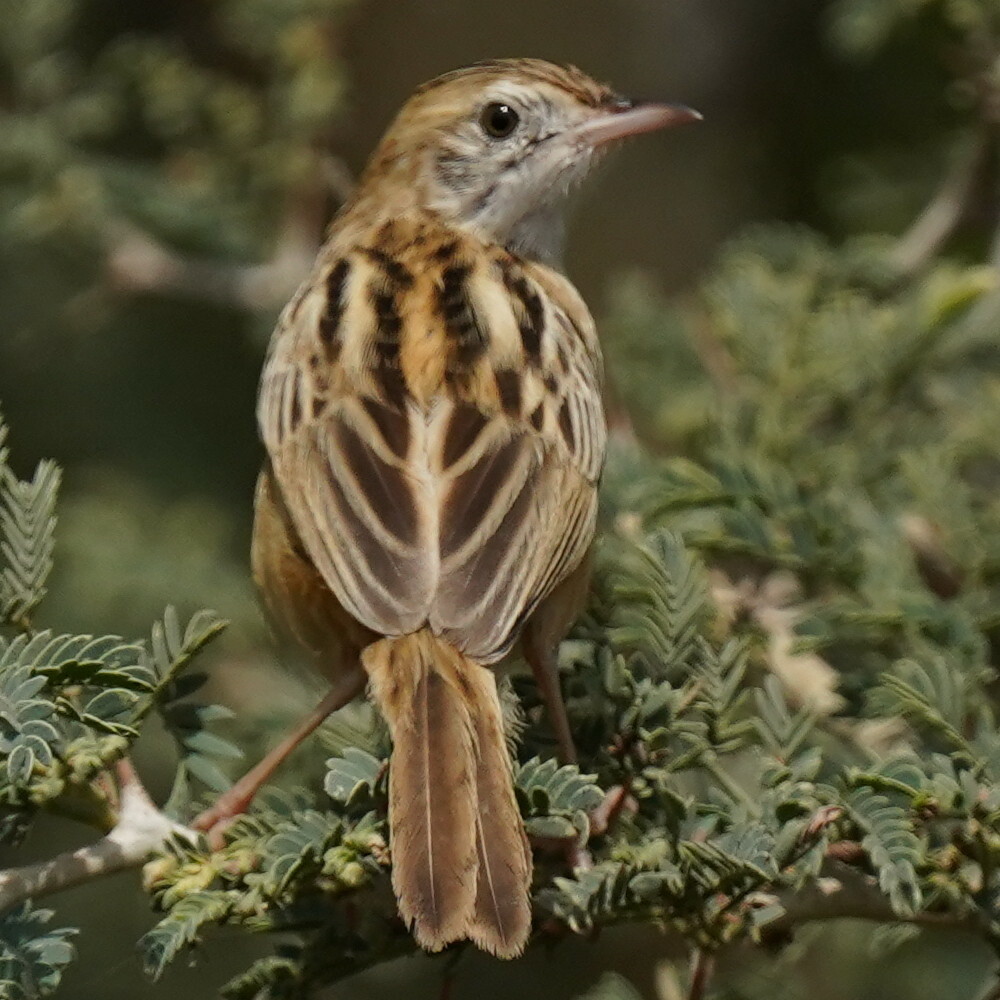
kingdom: Animalia
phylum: Chordata
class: Aves
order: Passeriformes
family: Cisticolidae
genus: Cisticola
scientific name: Cisticola juncidis
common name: Zitting cisticola
